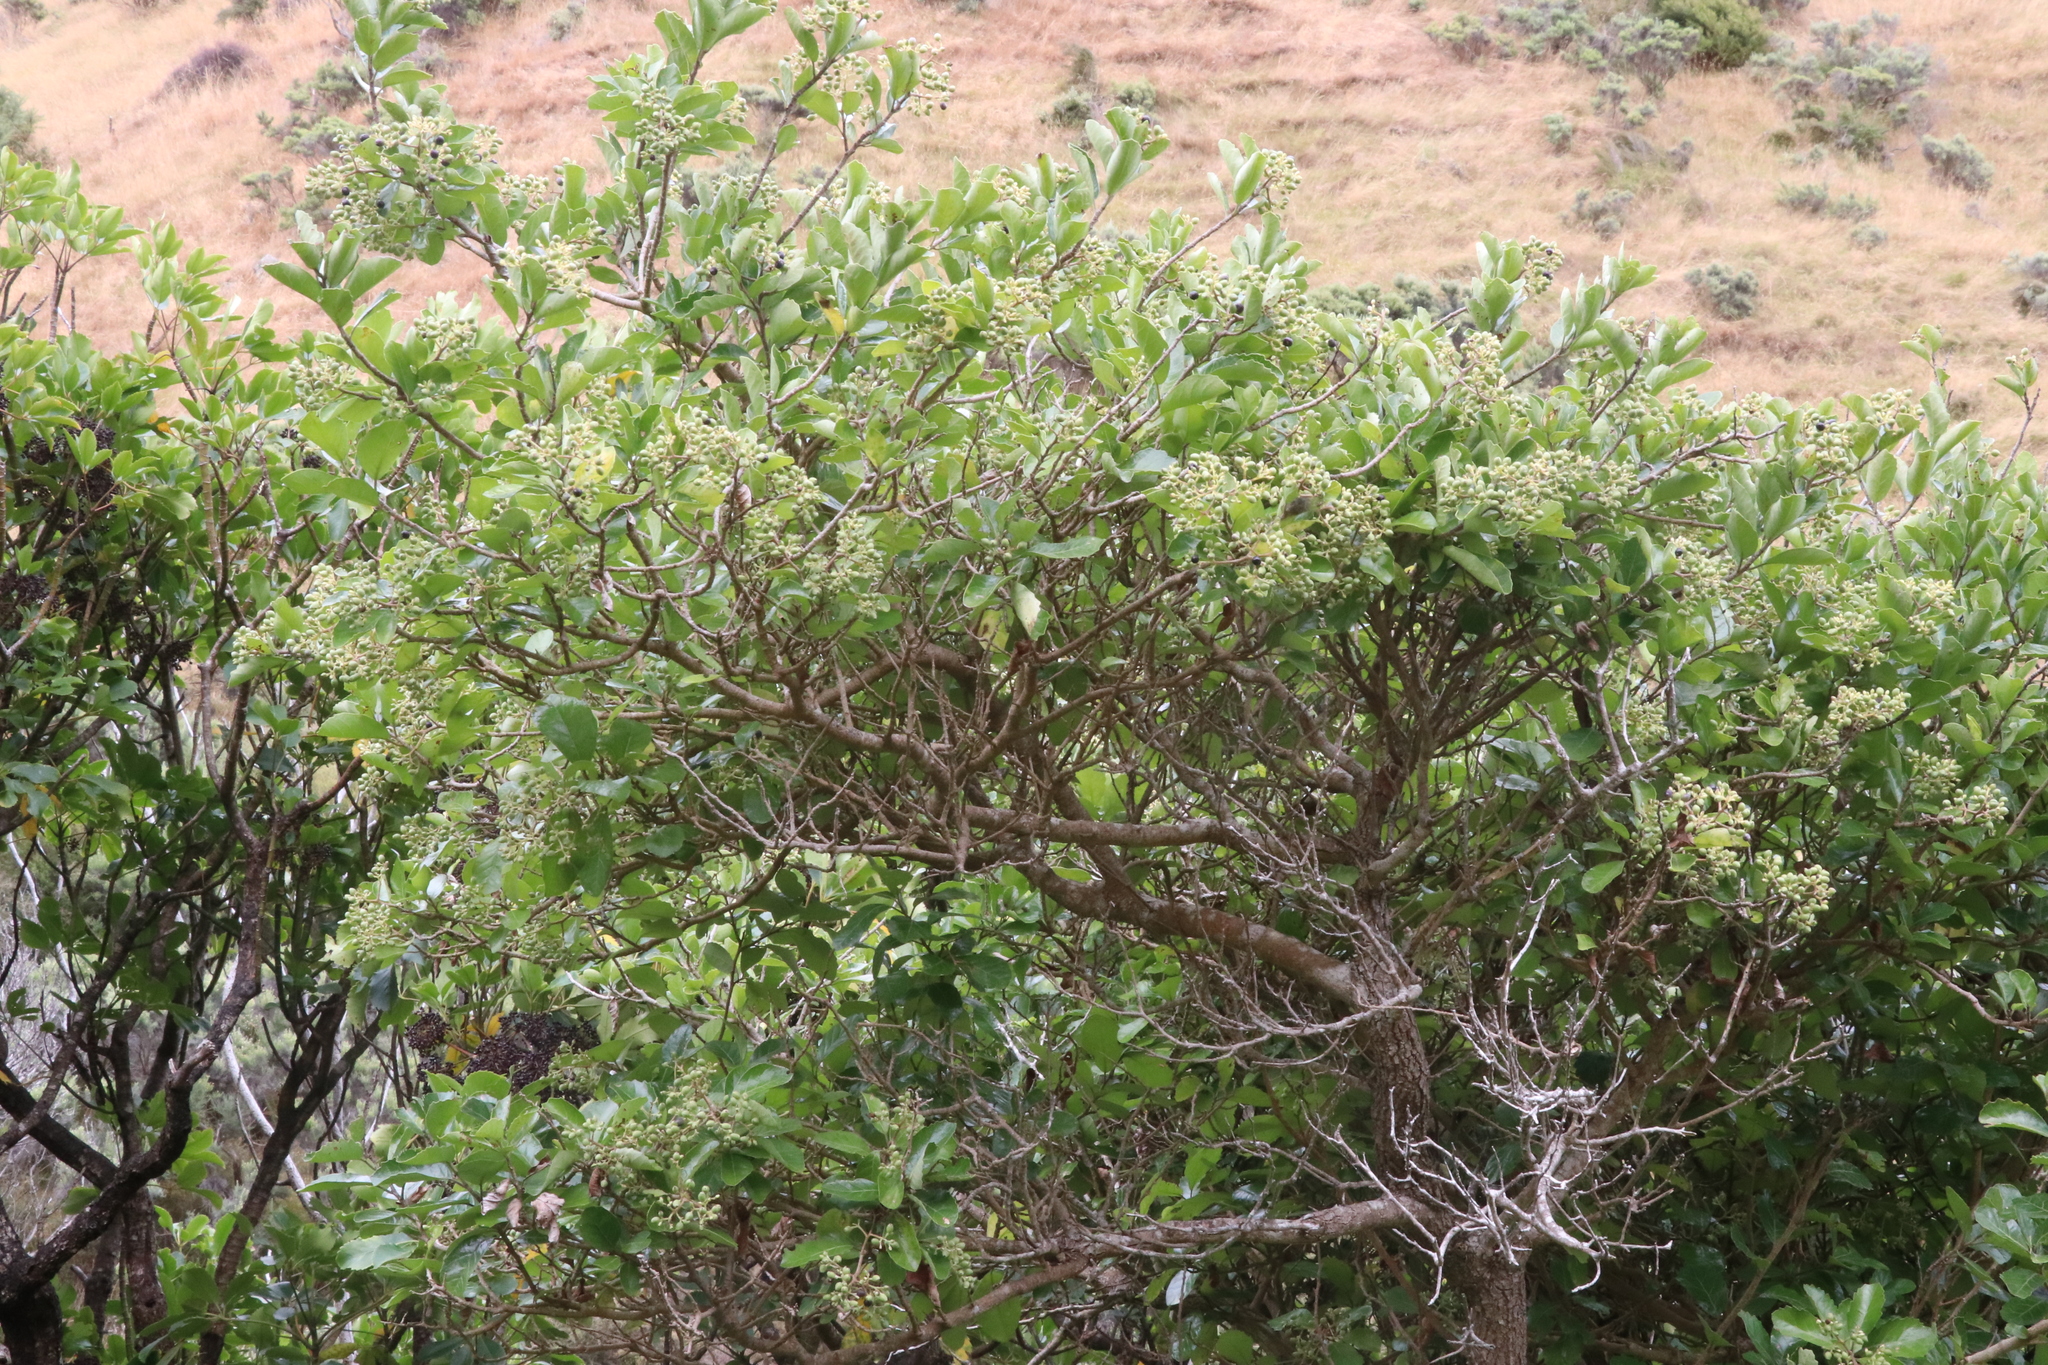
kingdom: Plantae
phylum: Tracheophyta
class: Magnoliopsida
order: Apiales
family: Pennantiaceae
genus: Pennantia
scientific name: Pennantia corymbosa
